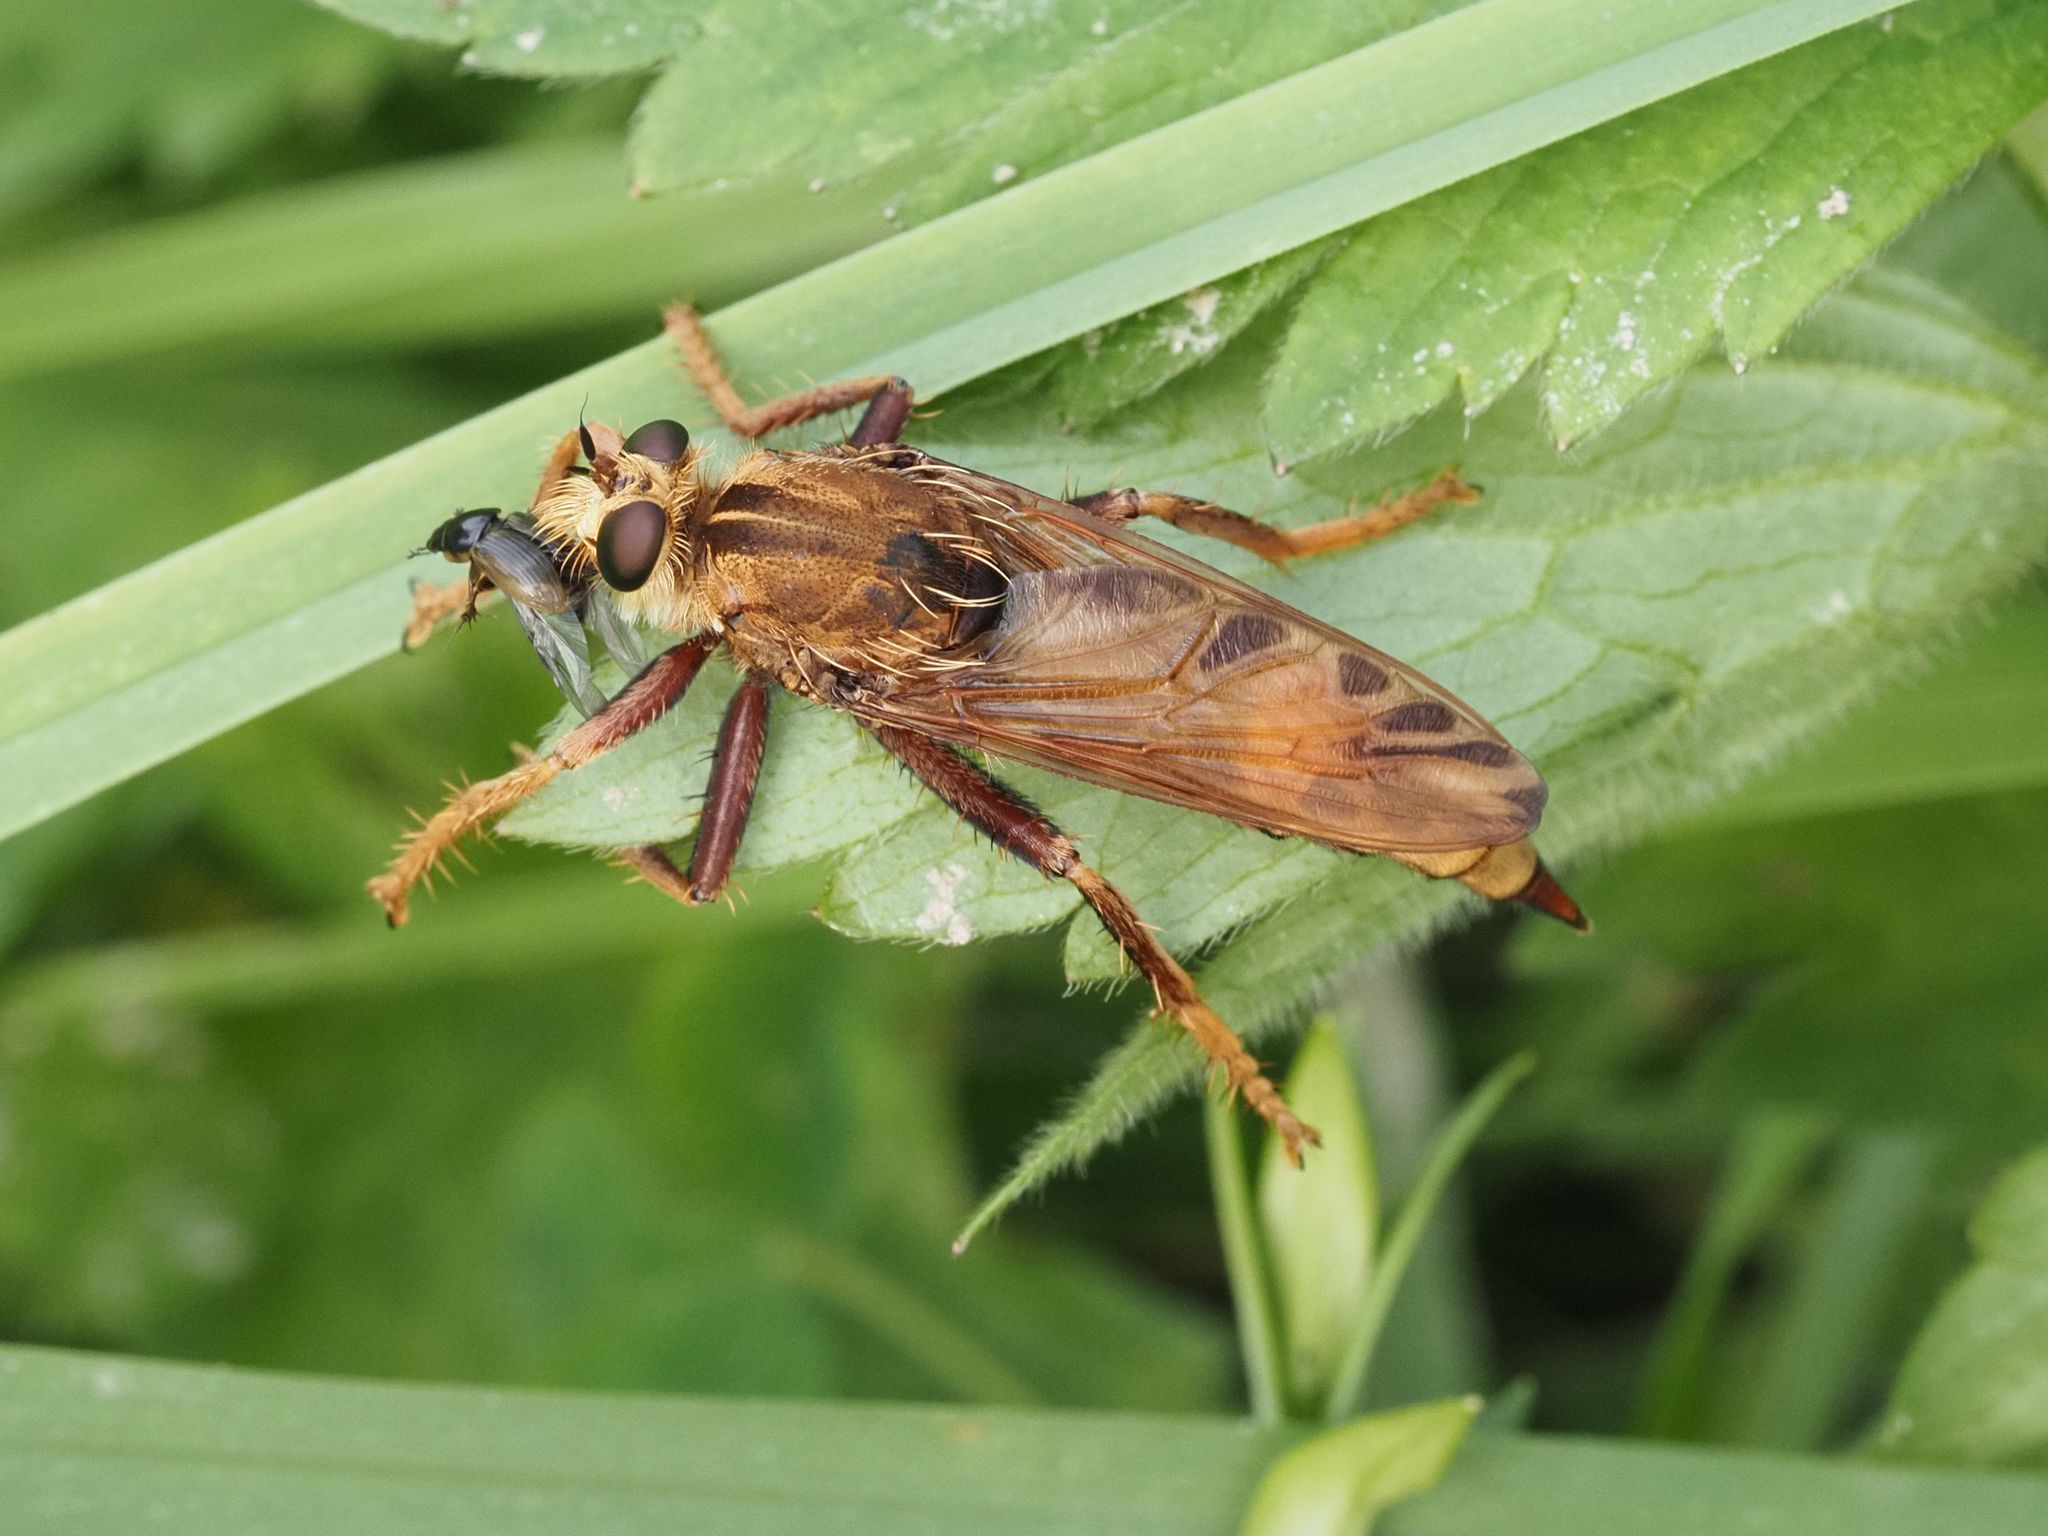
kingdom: Animalia
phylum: Arthropoda
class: Insecta
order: Diptera
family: Asilidae
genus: Asilus
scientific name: Asilus crabroniformis
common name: Hornet robberfly
